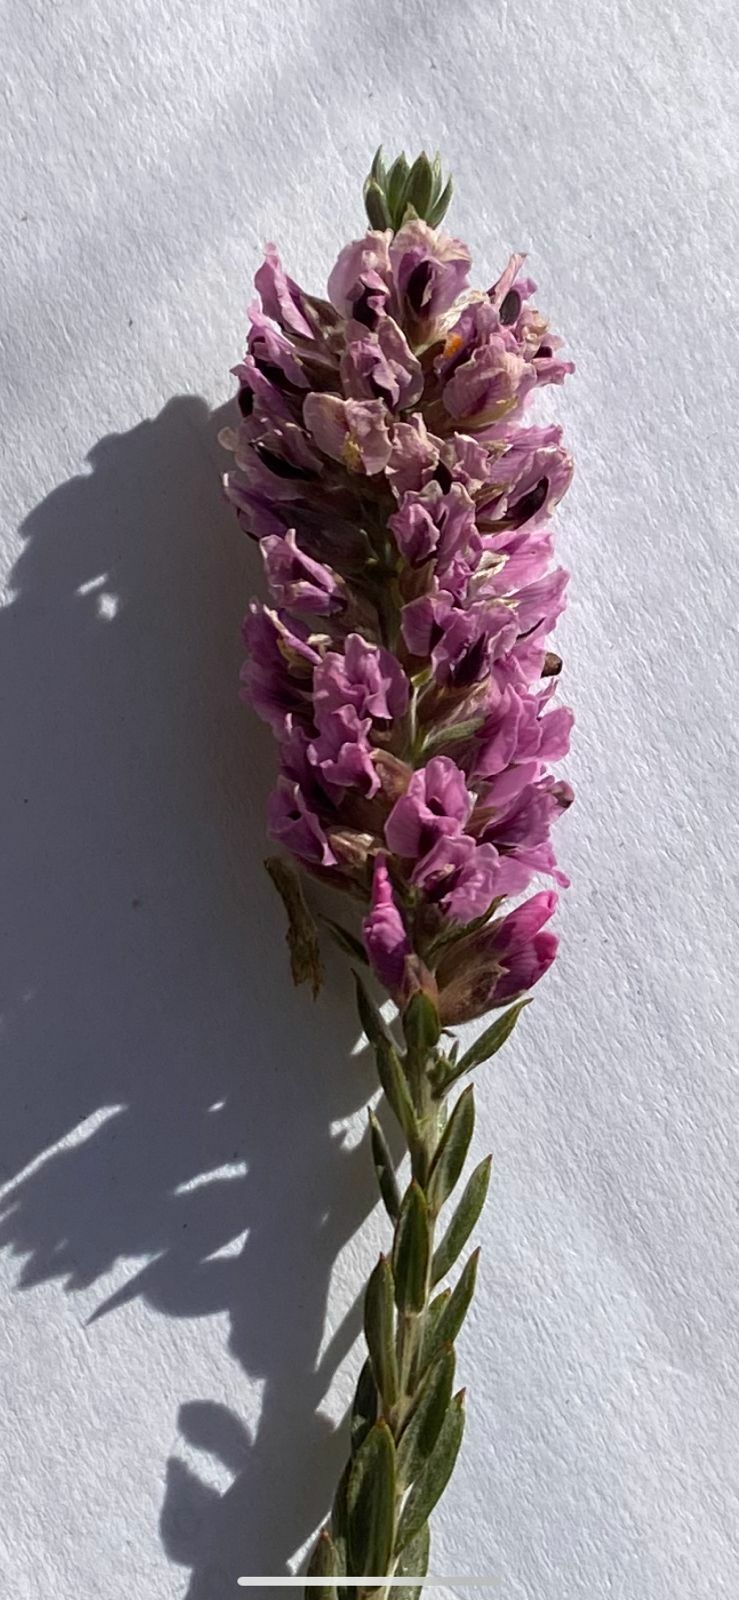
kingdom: Plantae
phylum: Tracheophyta
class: Magnoliopsida
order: Fabales
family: Fabaceae
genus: Amphithalea
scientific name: Amphithalea ericifolia
